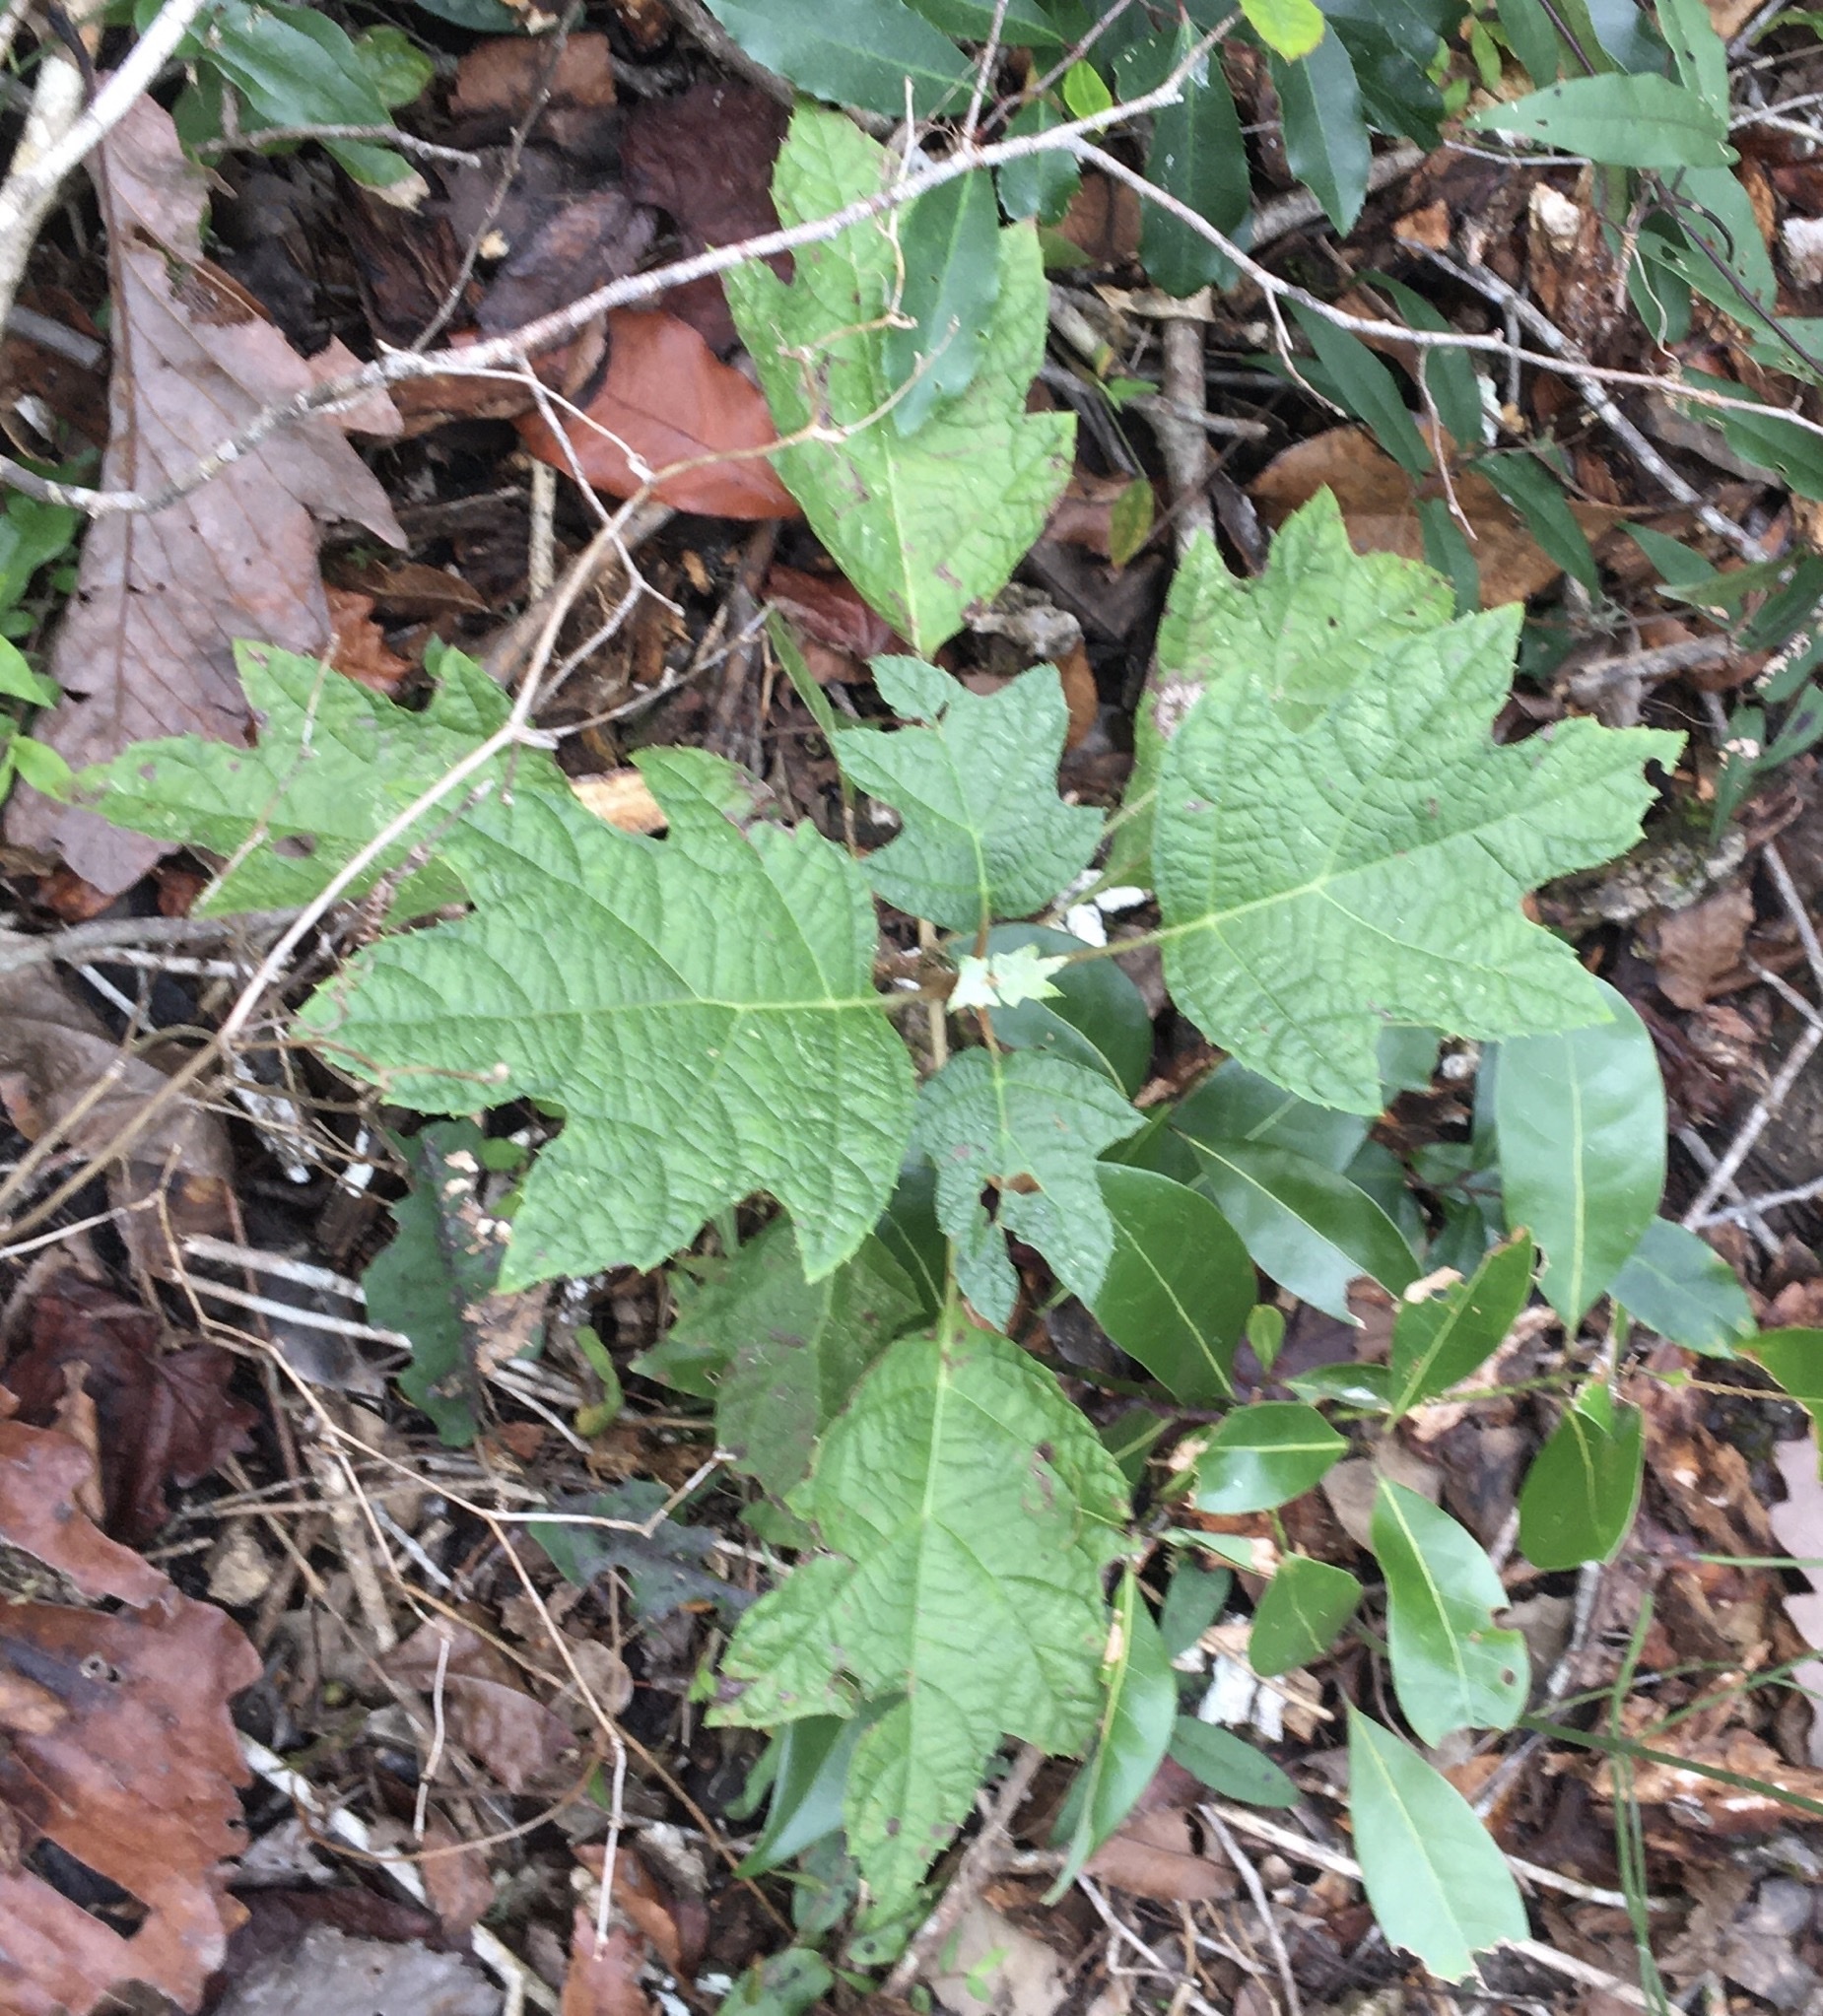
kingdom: Plantae
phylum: Tracheophyta
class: Magnoliopsida
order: Cornales
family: Hydrangeaceae
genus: Hydrangea
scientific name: Hydrangea quercifolia
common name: Oak-leaf hydrangea
